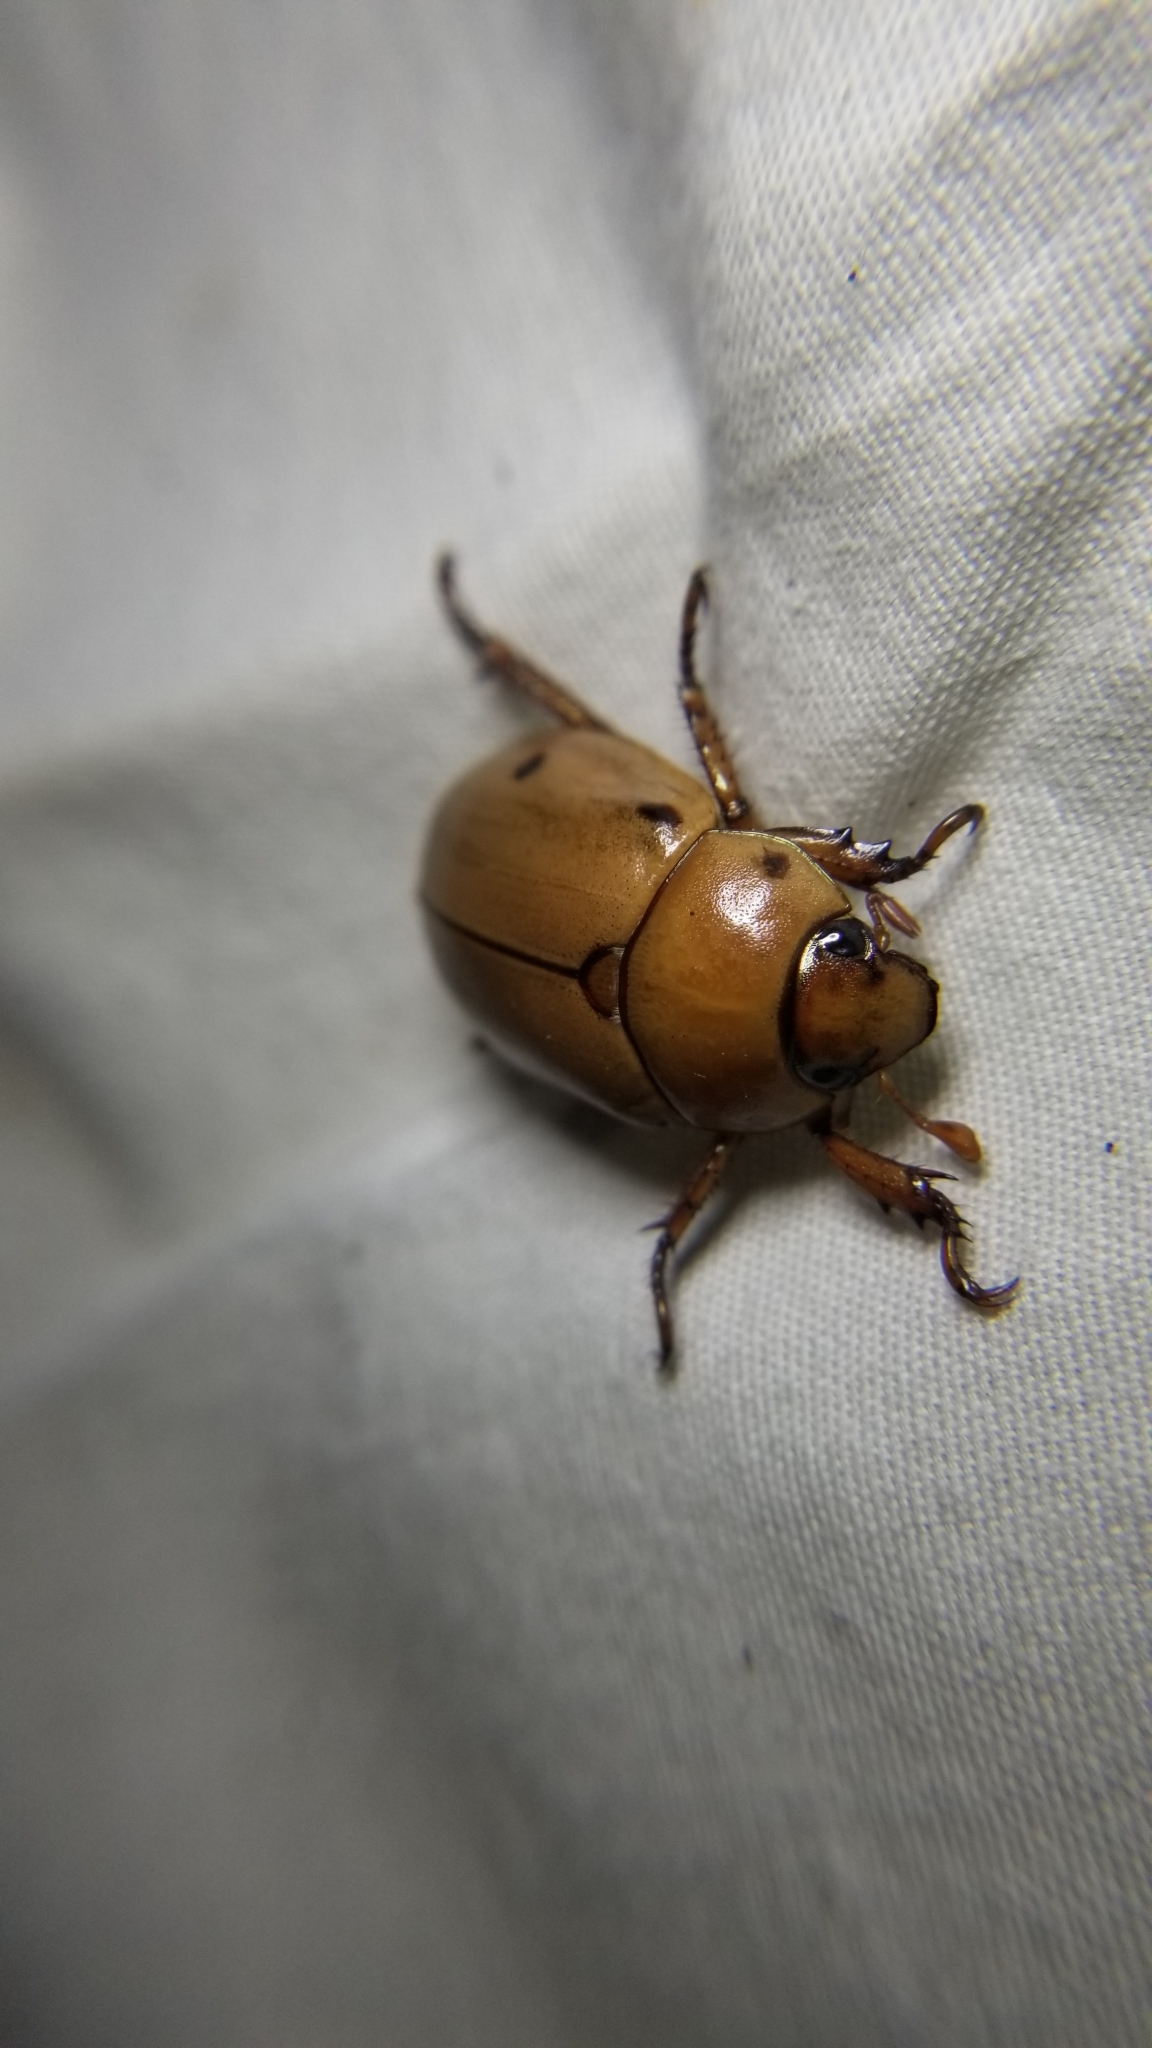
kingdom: Animalia
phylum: Arthropoda
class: Insecta
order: Coleoptera
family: Scarabaeidae
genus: Pelidnota
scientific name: Pelidnota punctata
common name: Grapevine beetle
